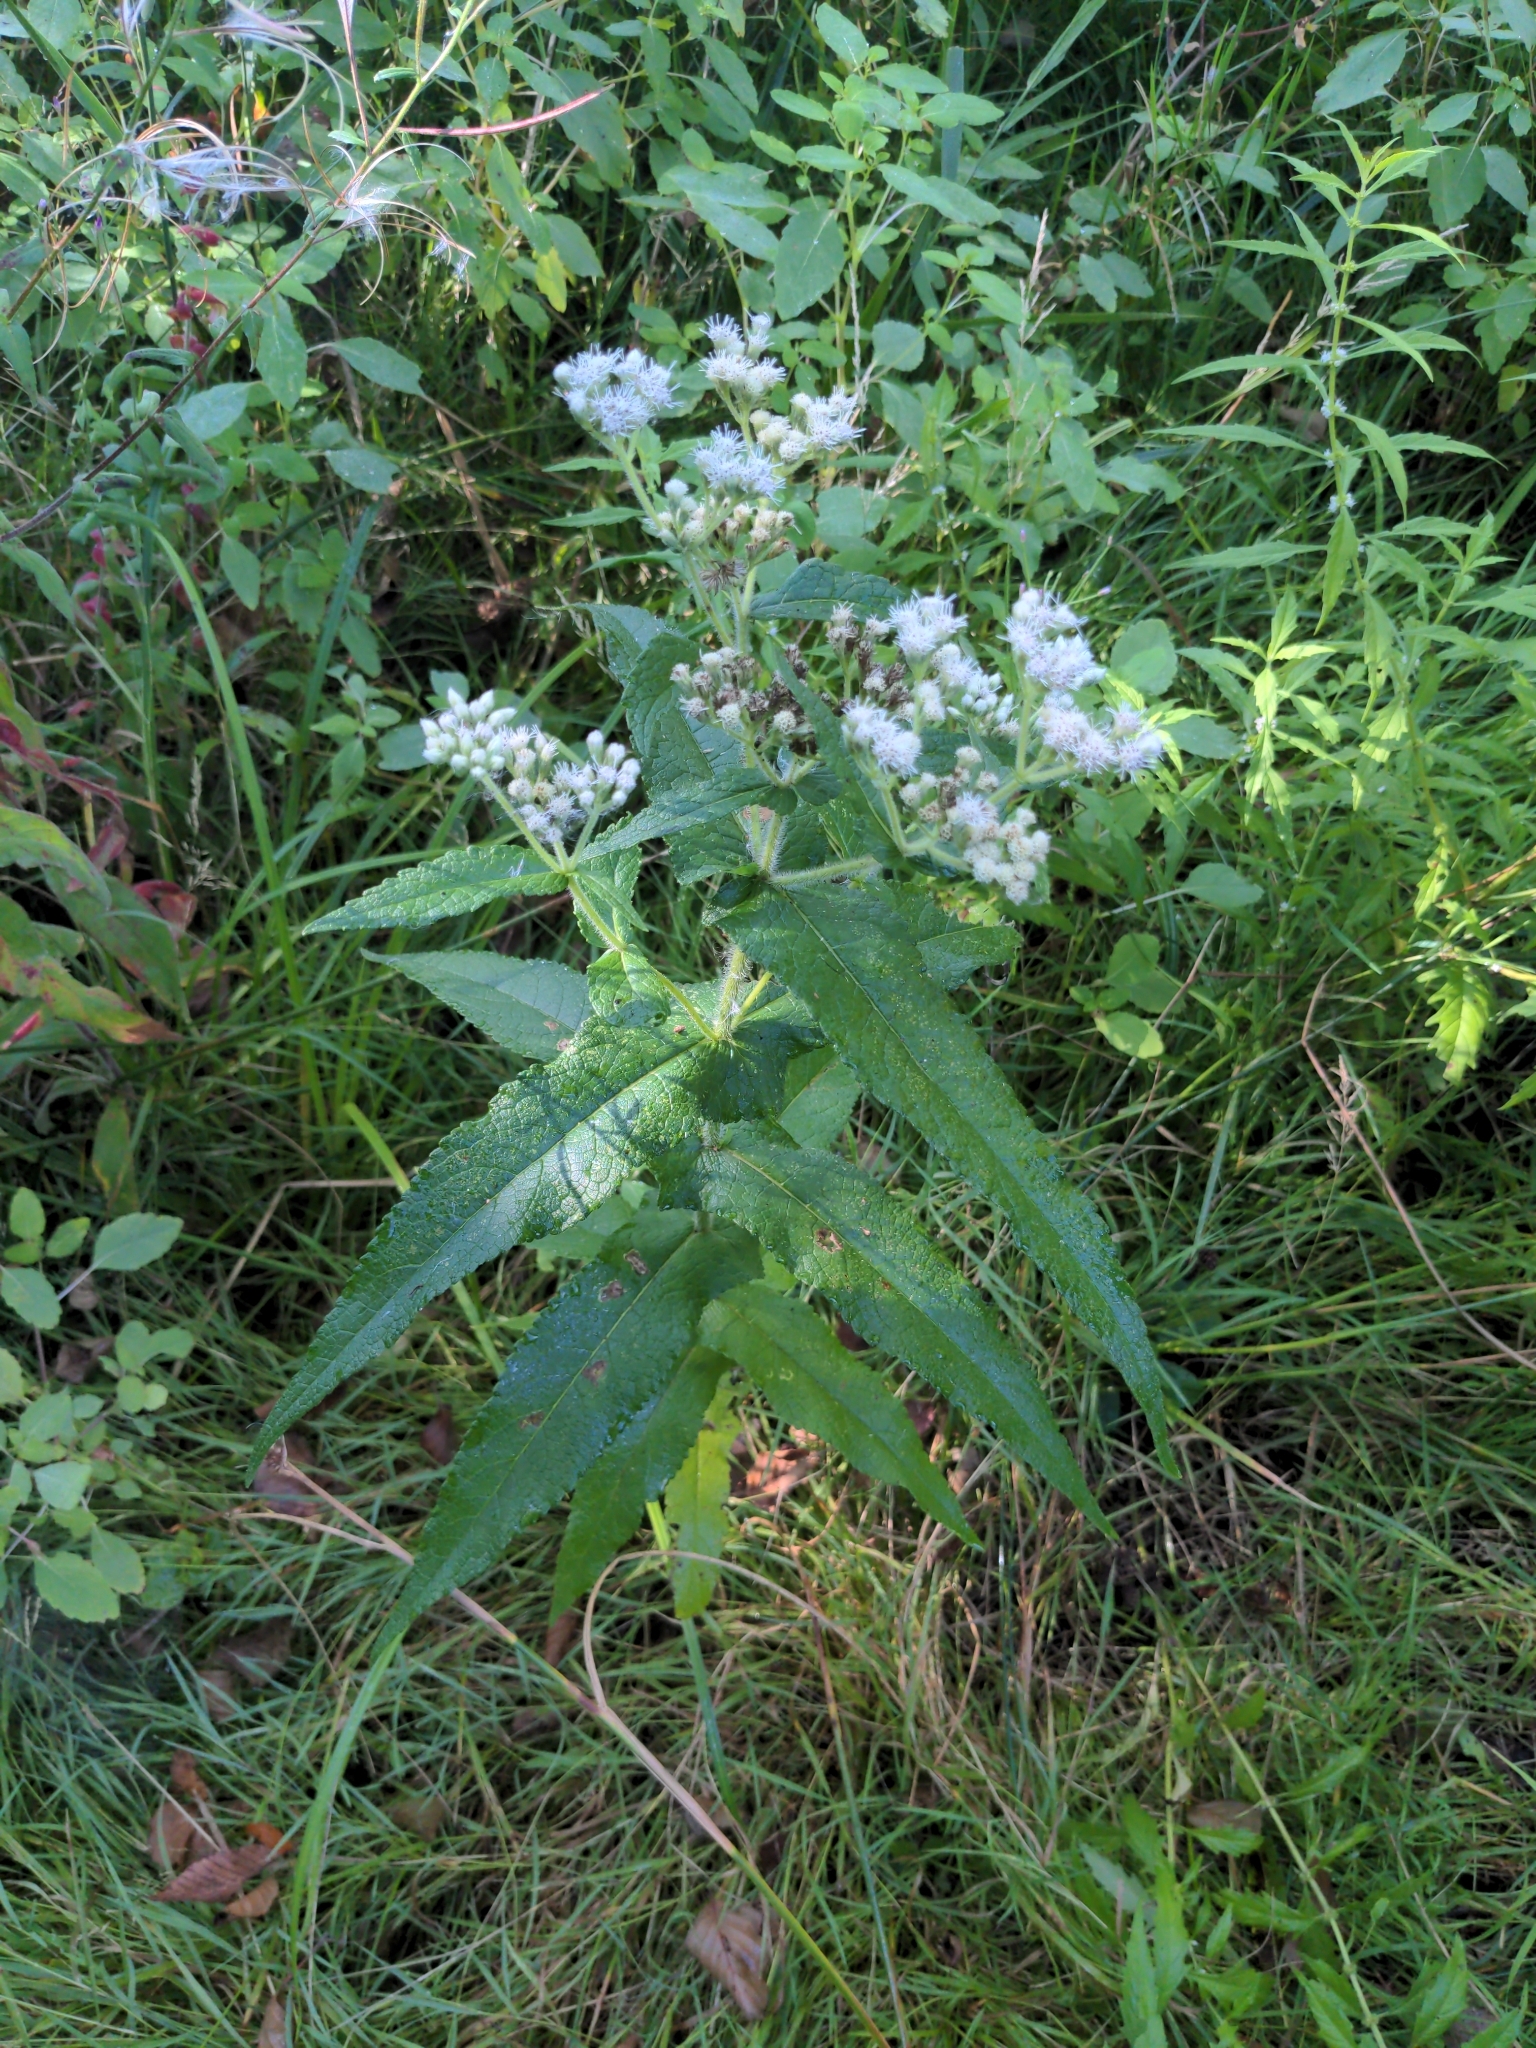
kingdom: Plantae
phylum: Tracheophyta
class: Magnoliopsida
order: Asterales
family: Asteraceae
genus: Eupatorium
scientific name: Eupatorium perfoliatum
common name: Boneset
